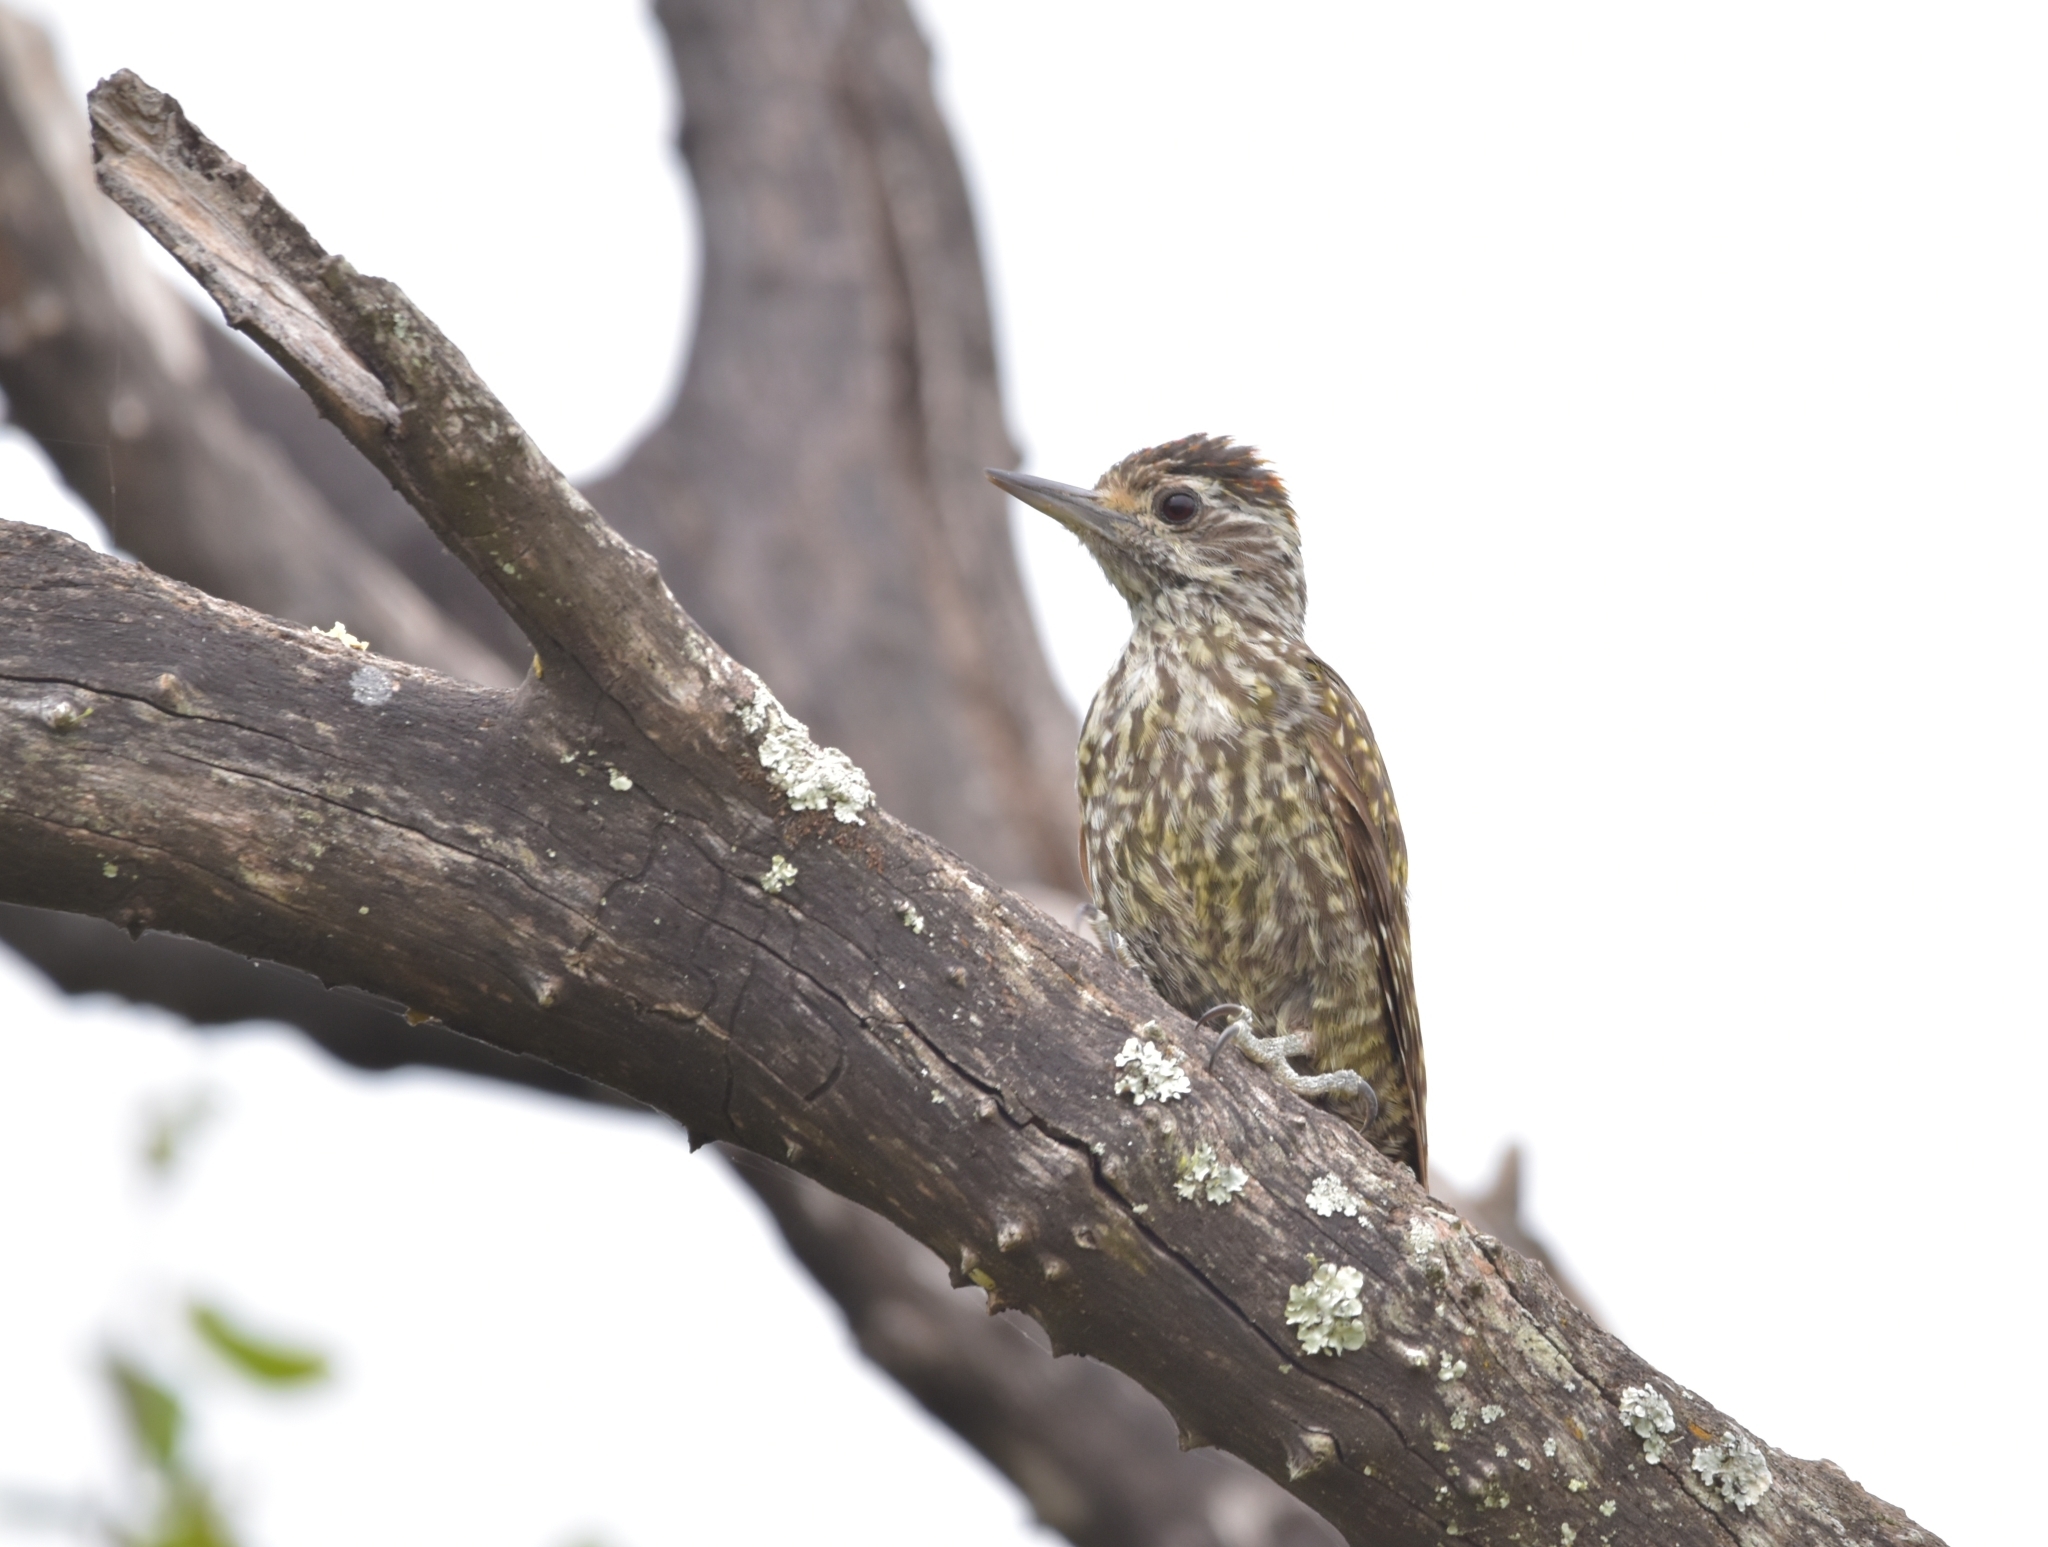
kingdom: Animalia
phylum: Chordata
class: Aves
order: Piciformes
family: Picidae
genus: Veniliornis
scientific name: Veniliornis spilogaster
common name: White-spotted woodpecker
